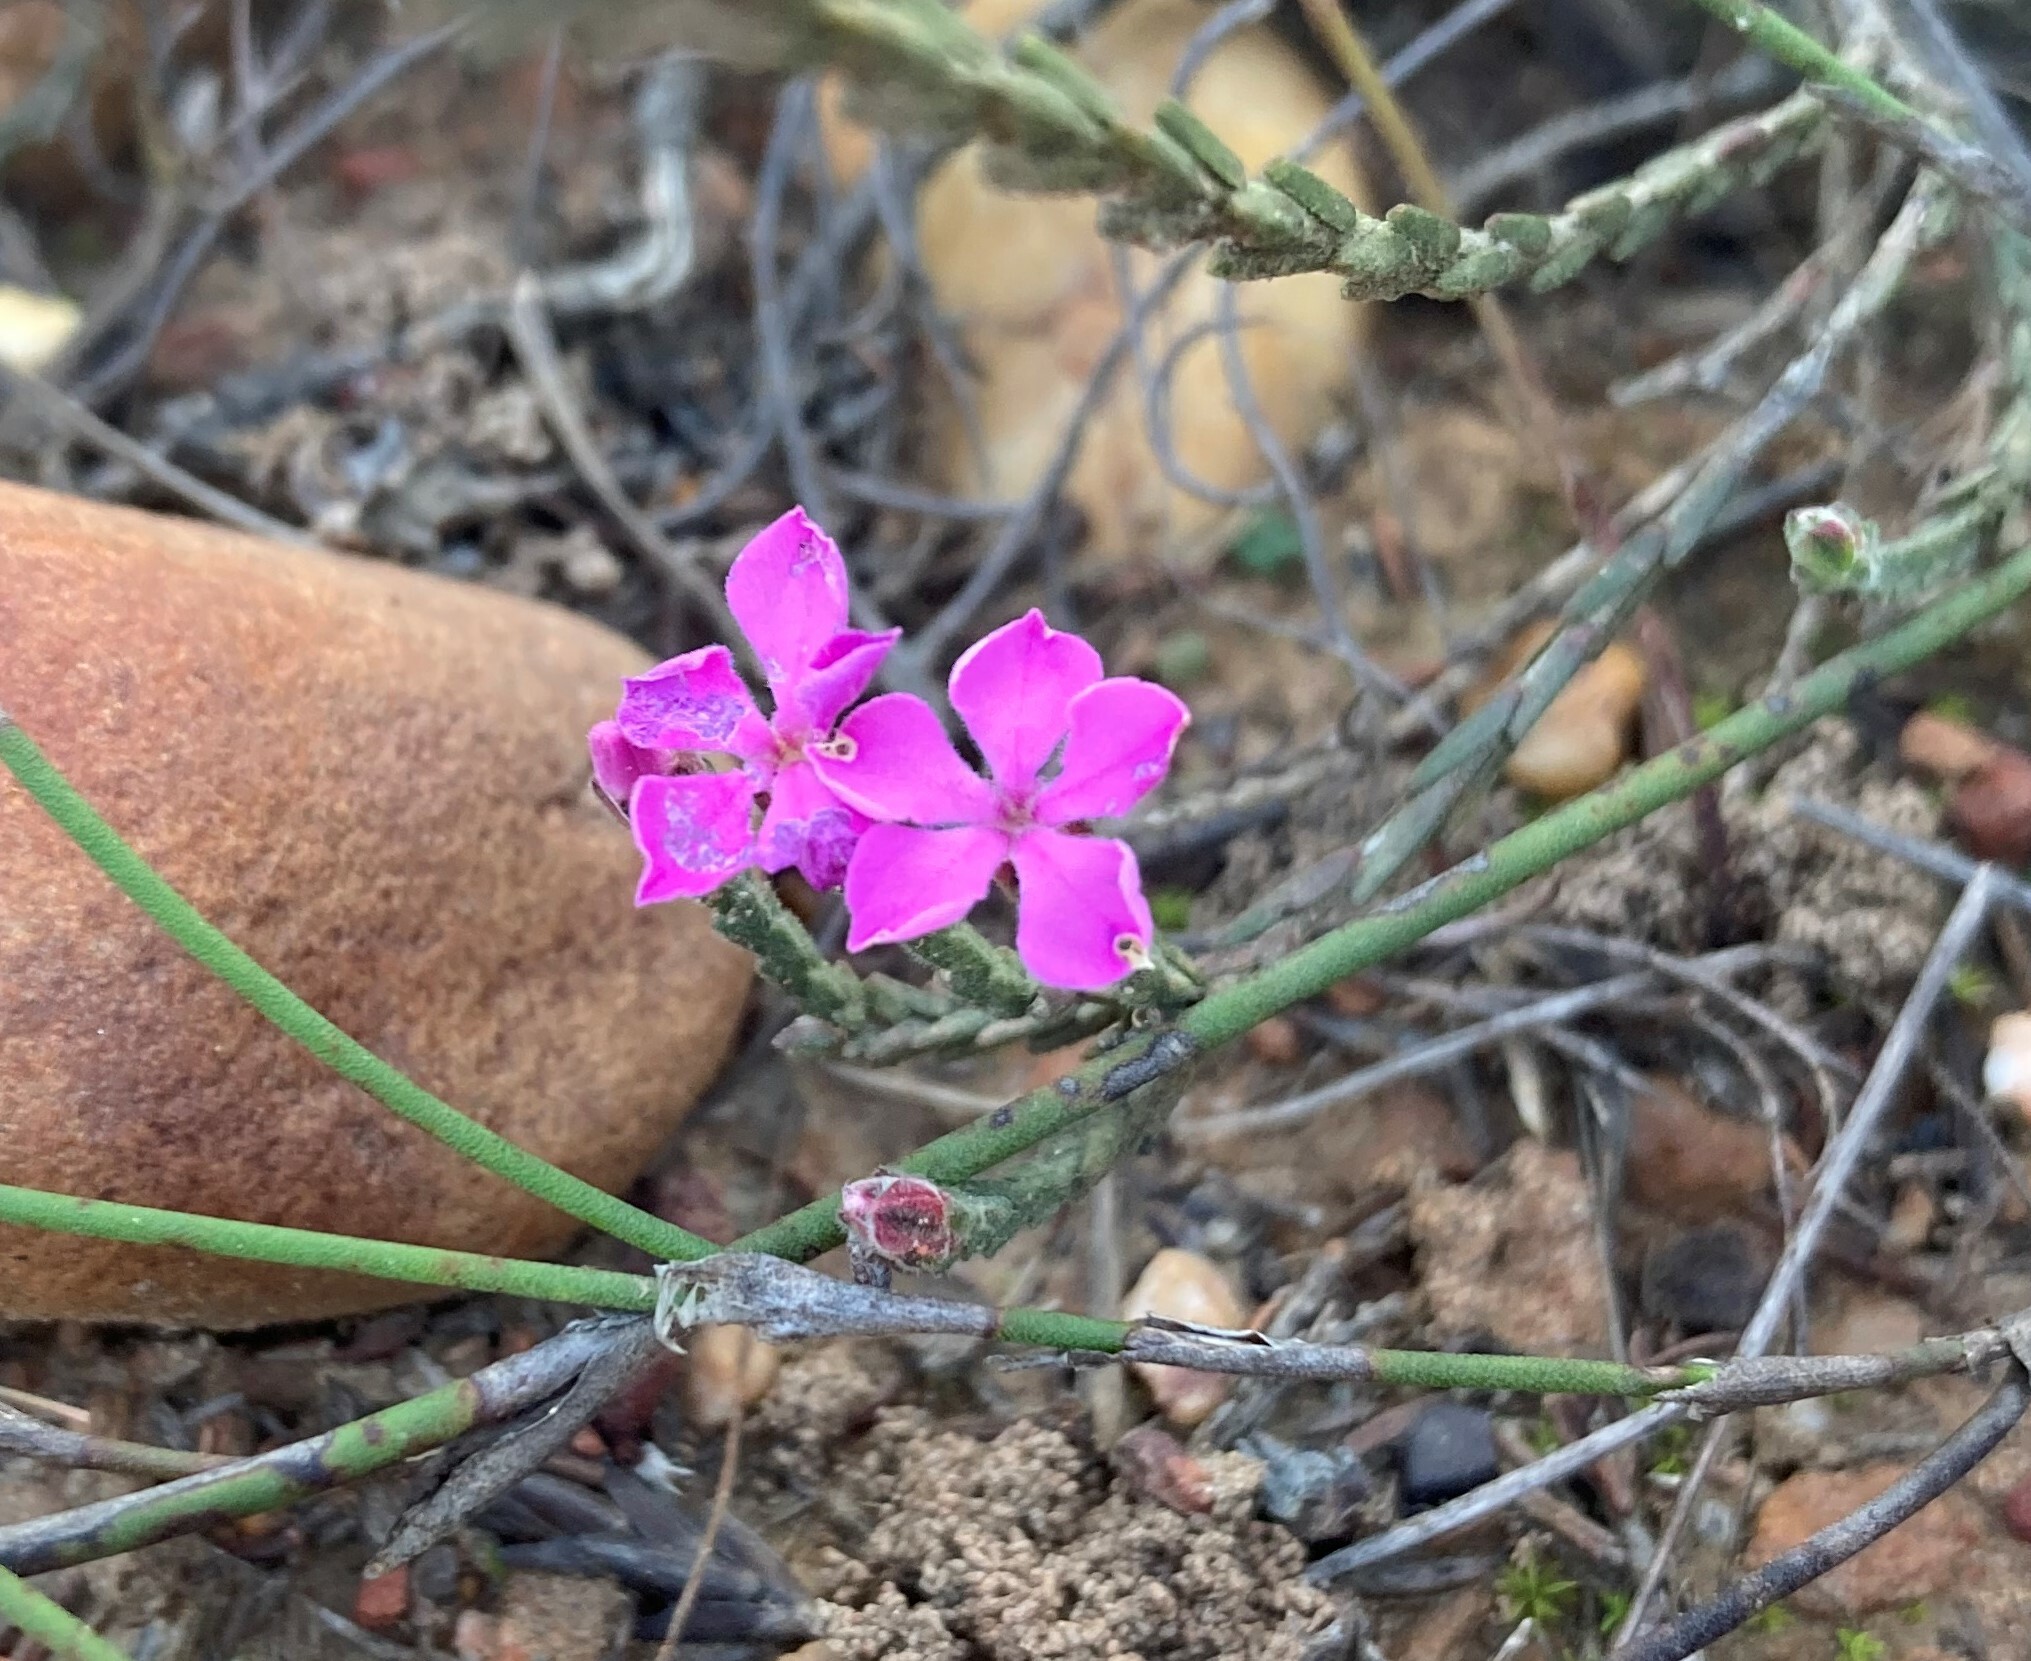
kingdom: Plantae
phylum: Tracheophyta
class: Magnoliopsida
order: Sapindales
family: Rutaceae
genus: Acmadenia
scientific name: Acmadenia laxa
